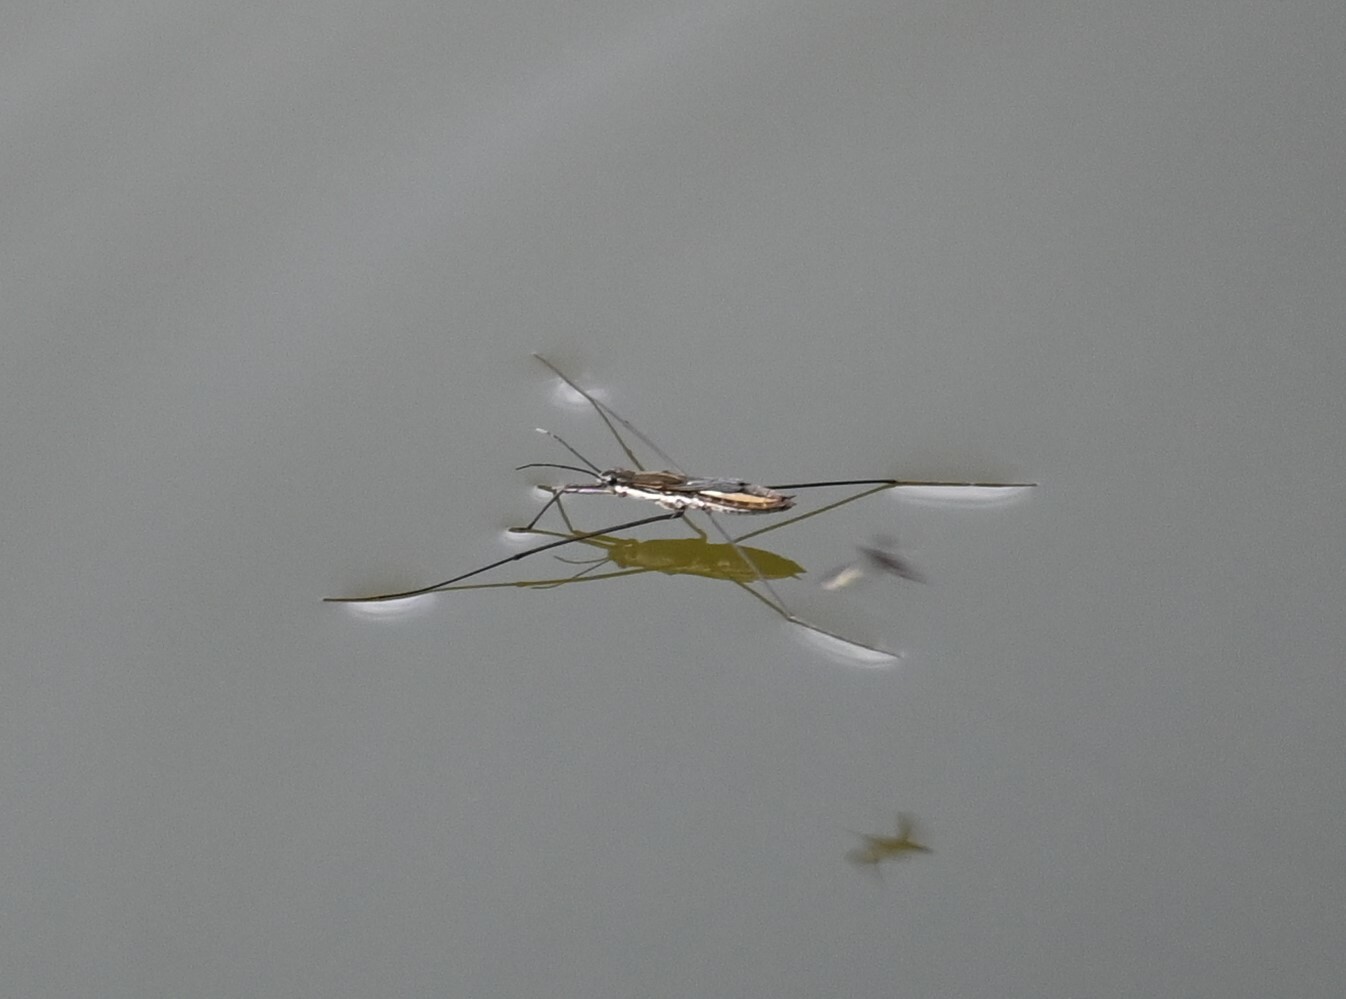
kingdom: Animalia
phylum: Arthropoda
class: Insecta
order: Hemiptera
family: Gerridae
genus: Aquarius
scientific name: Aquarius paludum
